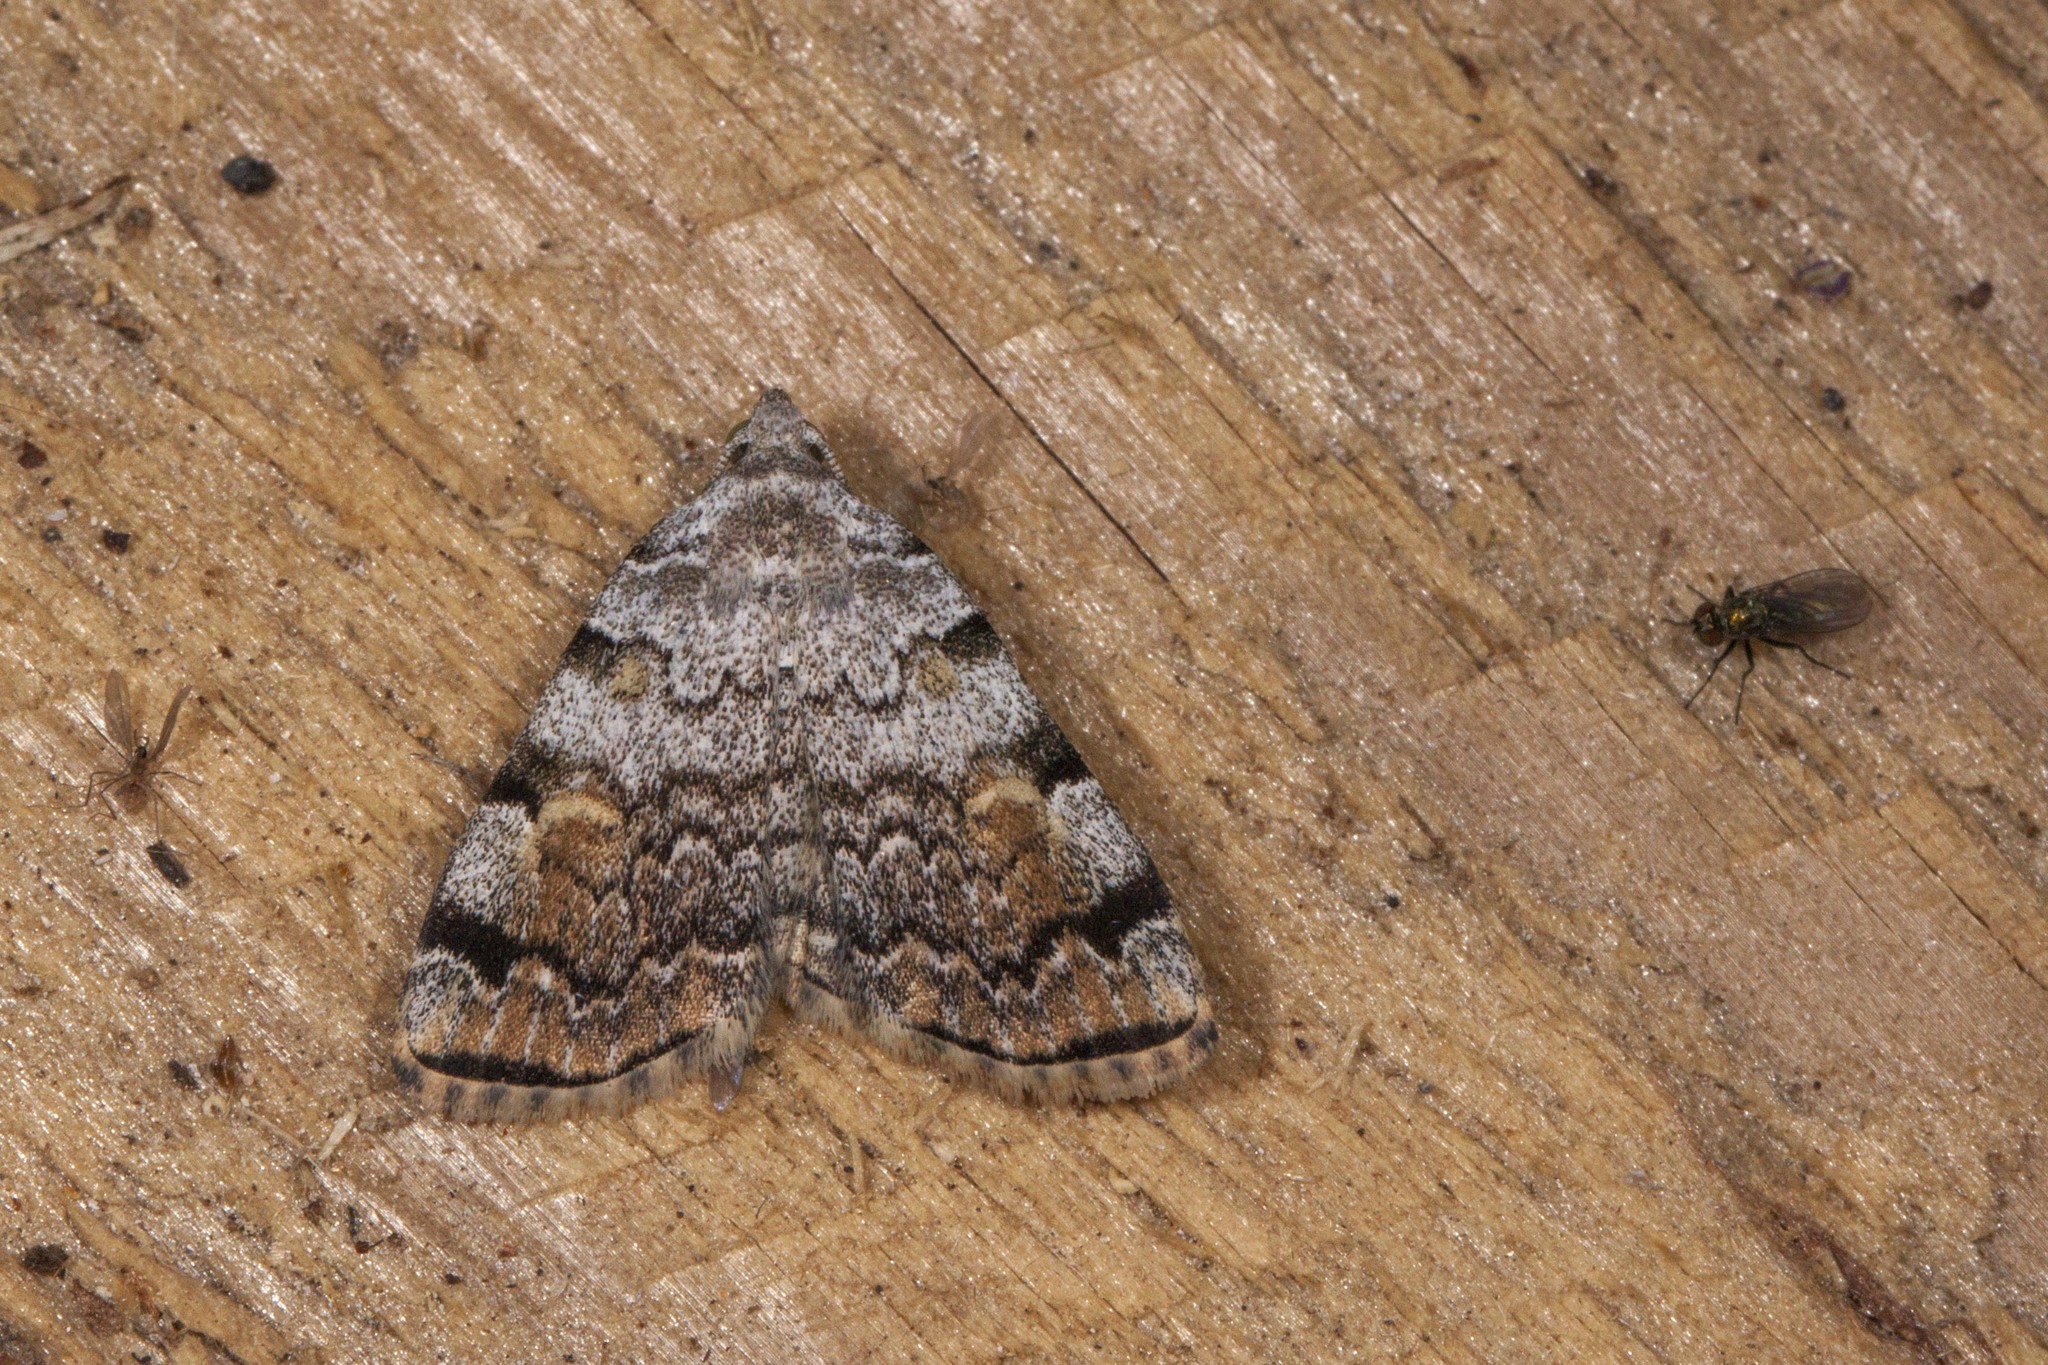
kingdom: Animalia
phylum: Arthropoda
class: Insecta
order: Lepidoptera
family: Erebidae
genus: Idia
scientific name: Idia americalis
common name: American idia moth
